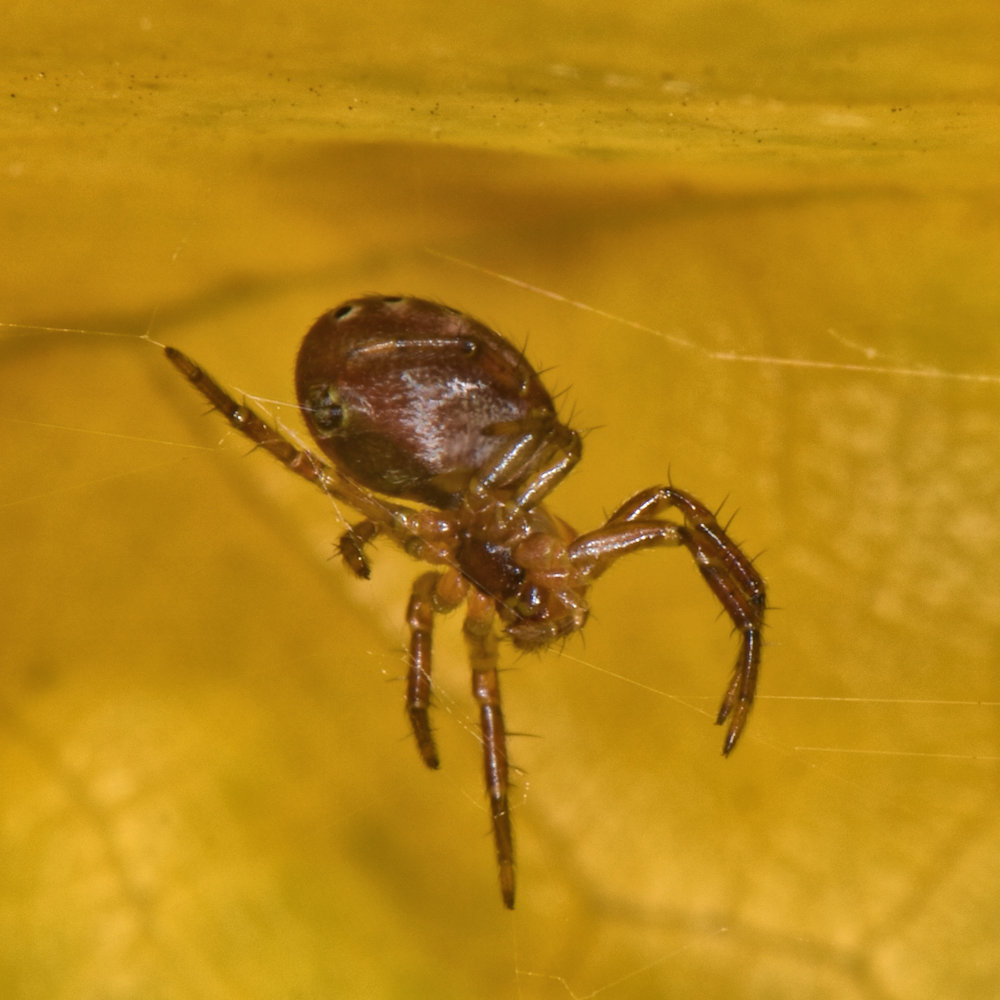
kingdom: Animalia
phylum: Arthropoda
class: Arachnida
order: Araneae
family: Araneidae
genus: Araniella
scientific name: Araniella displicata
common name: Sixspotted orb weaver
